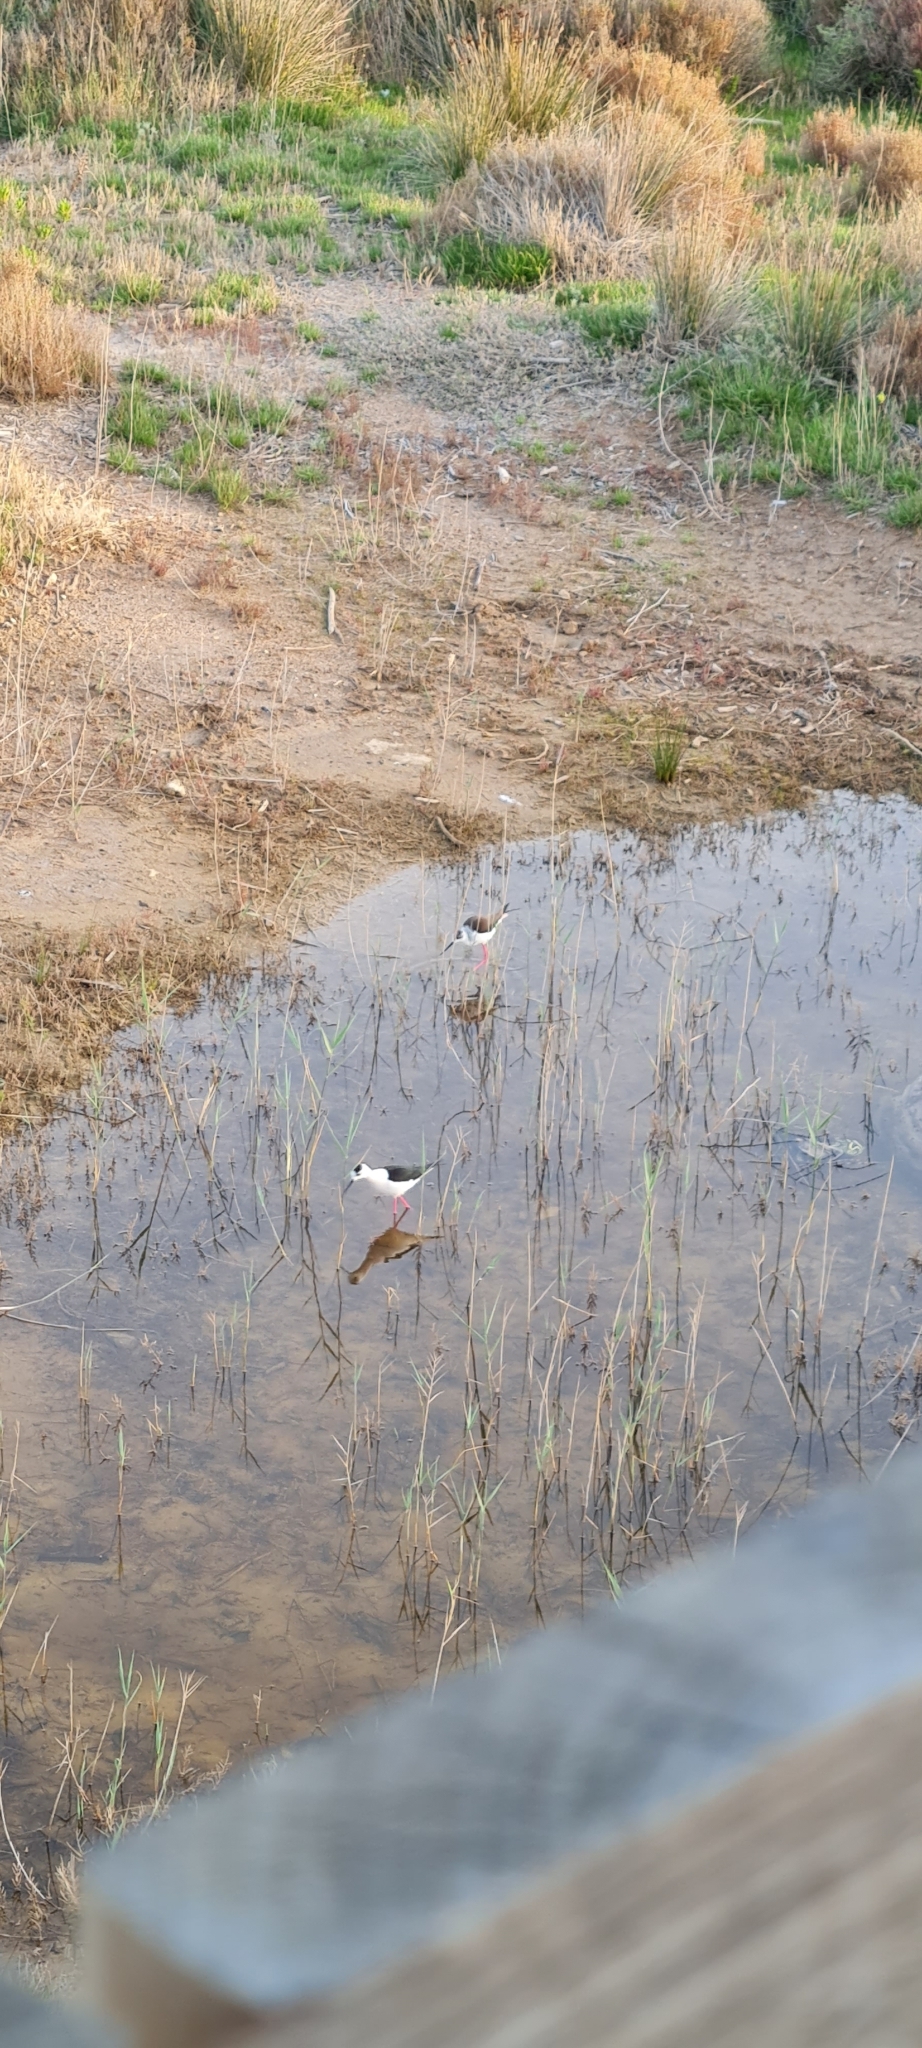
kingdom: Animalia
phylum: Chordata
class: Aves
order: Charadriiformes
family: Recurvirostridae
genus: Himantopus
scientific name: Himantopus himantopus
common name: Black-winged stilt
